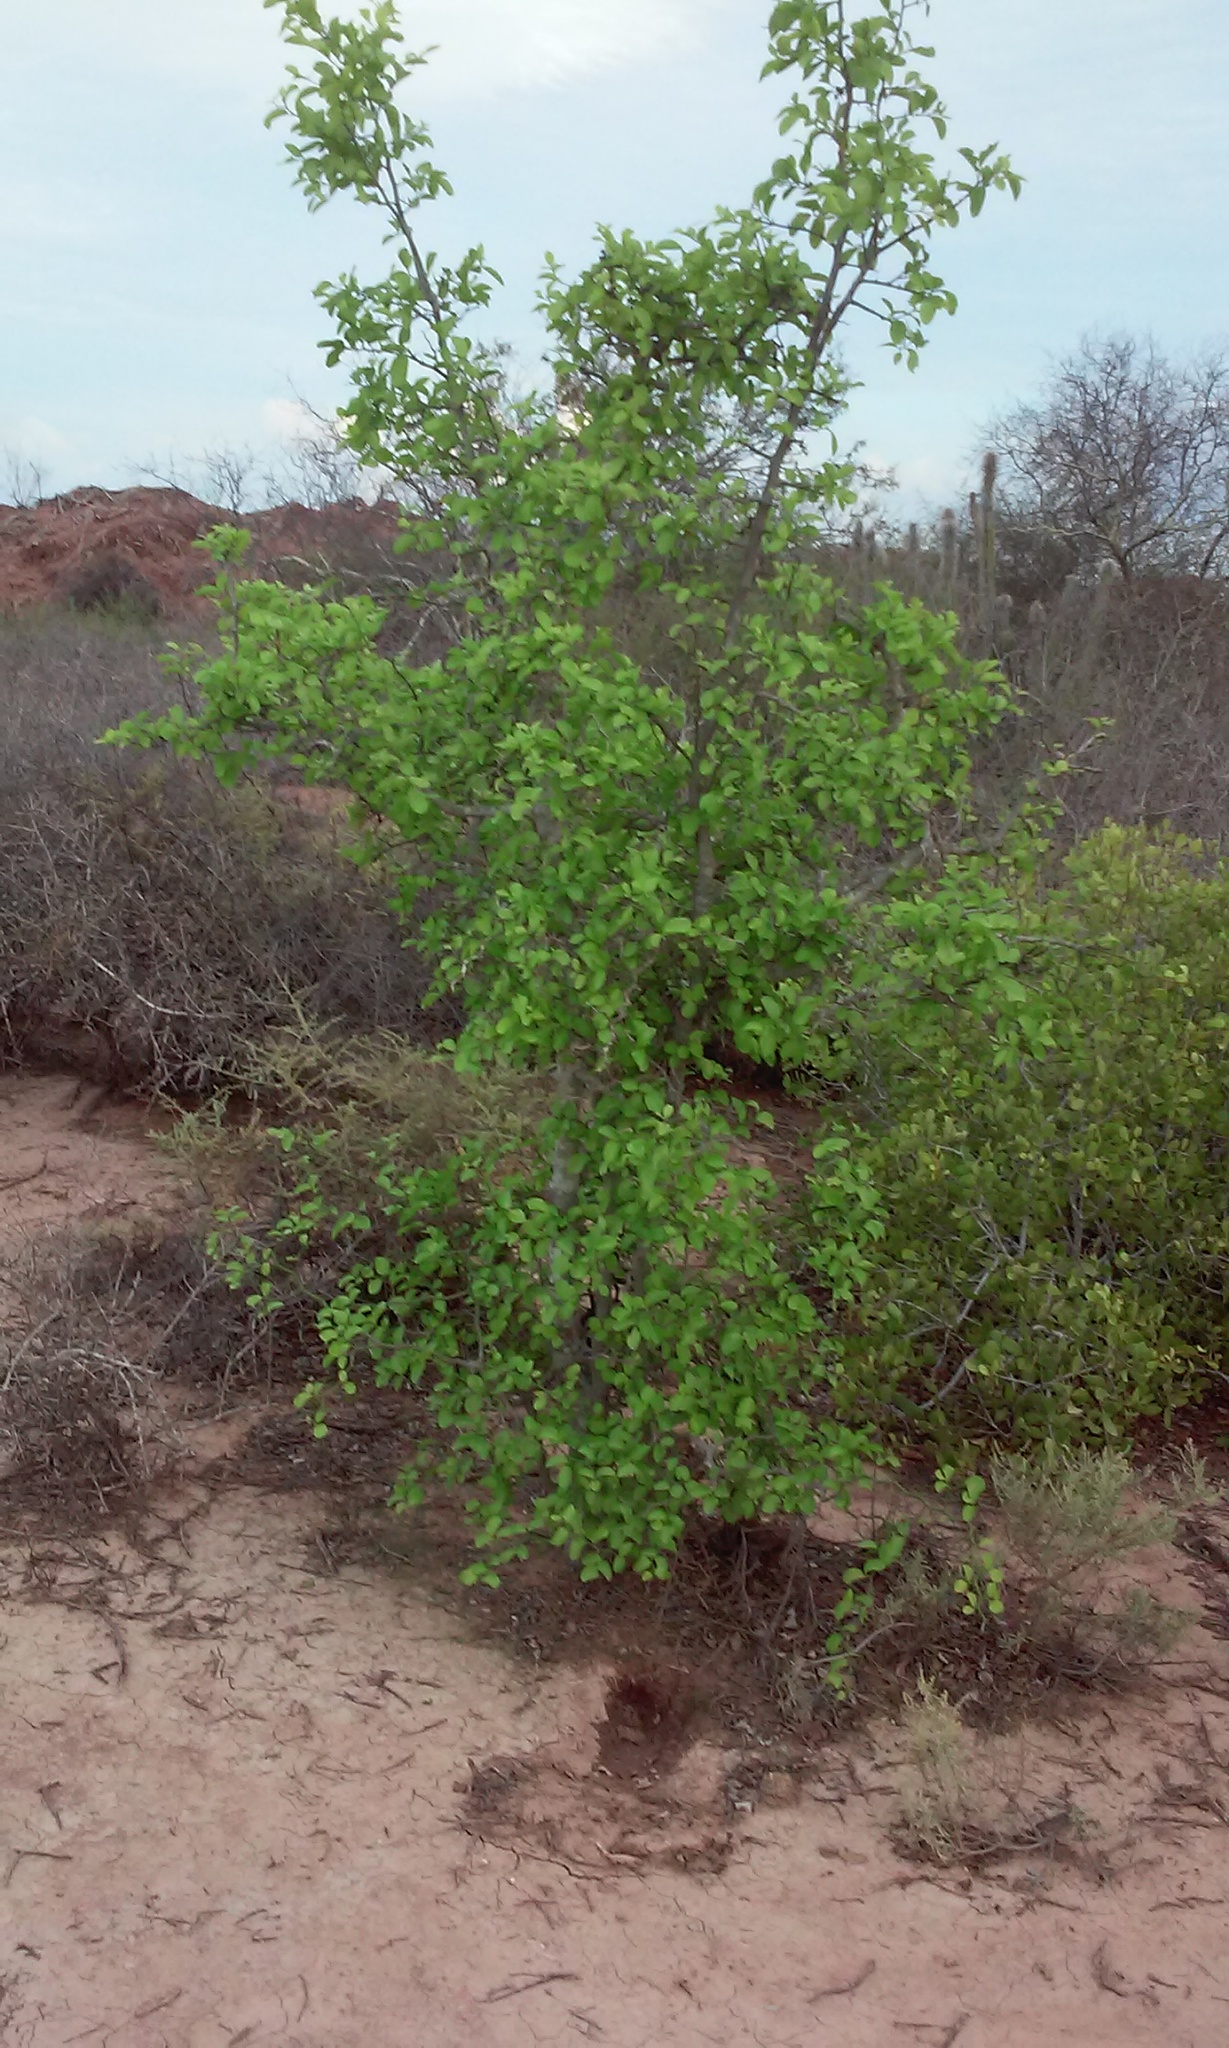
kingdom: Plantae
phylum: Tracheophyta
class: Magnoliopsida
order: Rosales
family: Rhamnaceae
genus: Sarcomphalus
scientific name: Sarcomphalus amole
